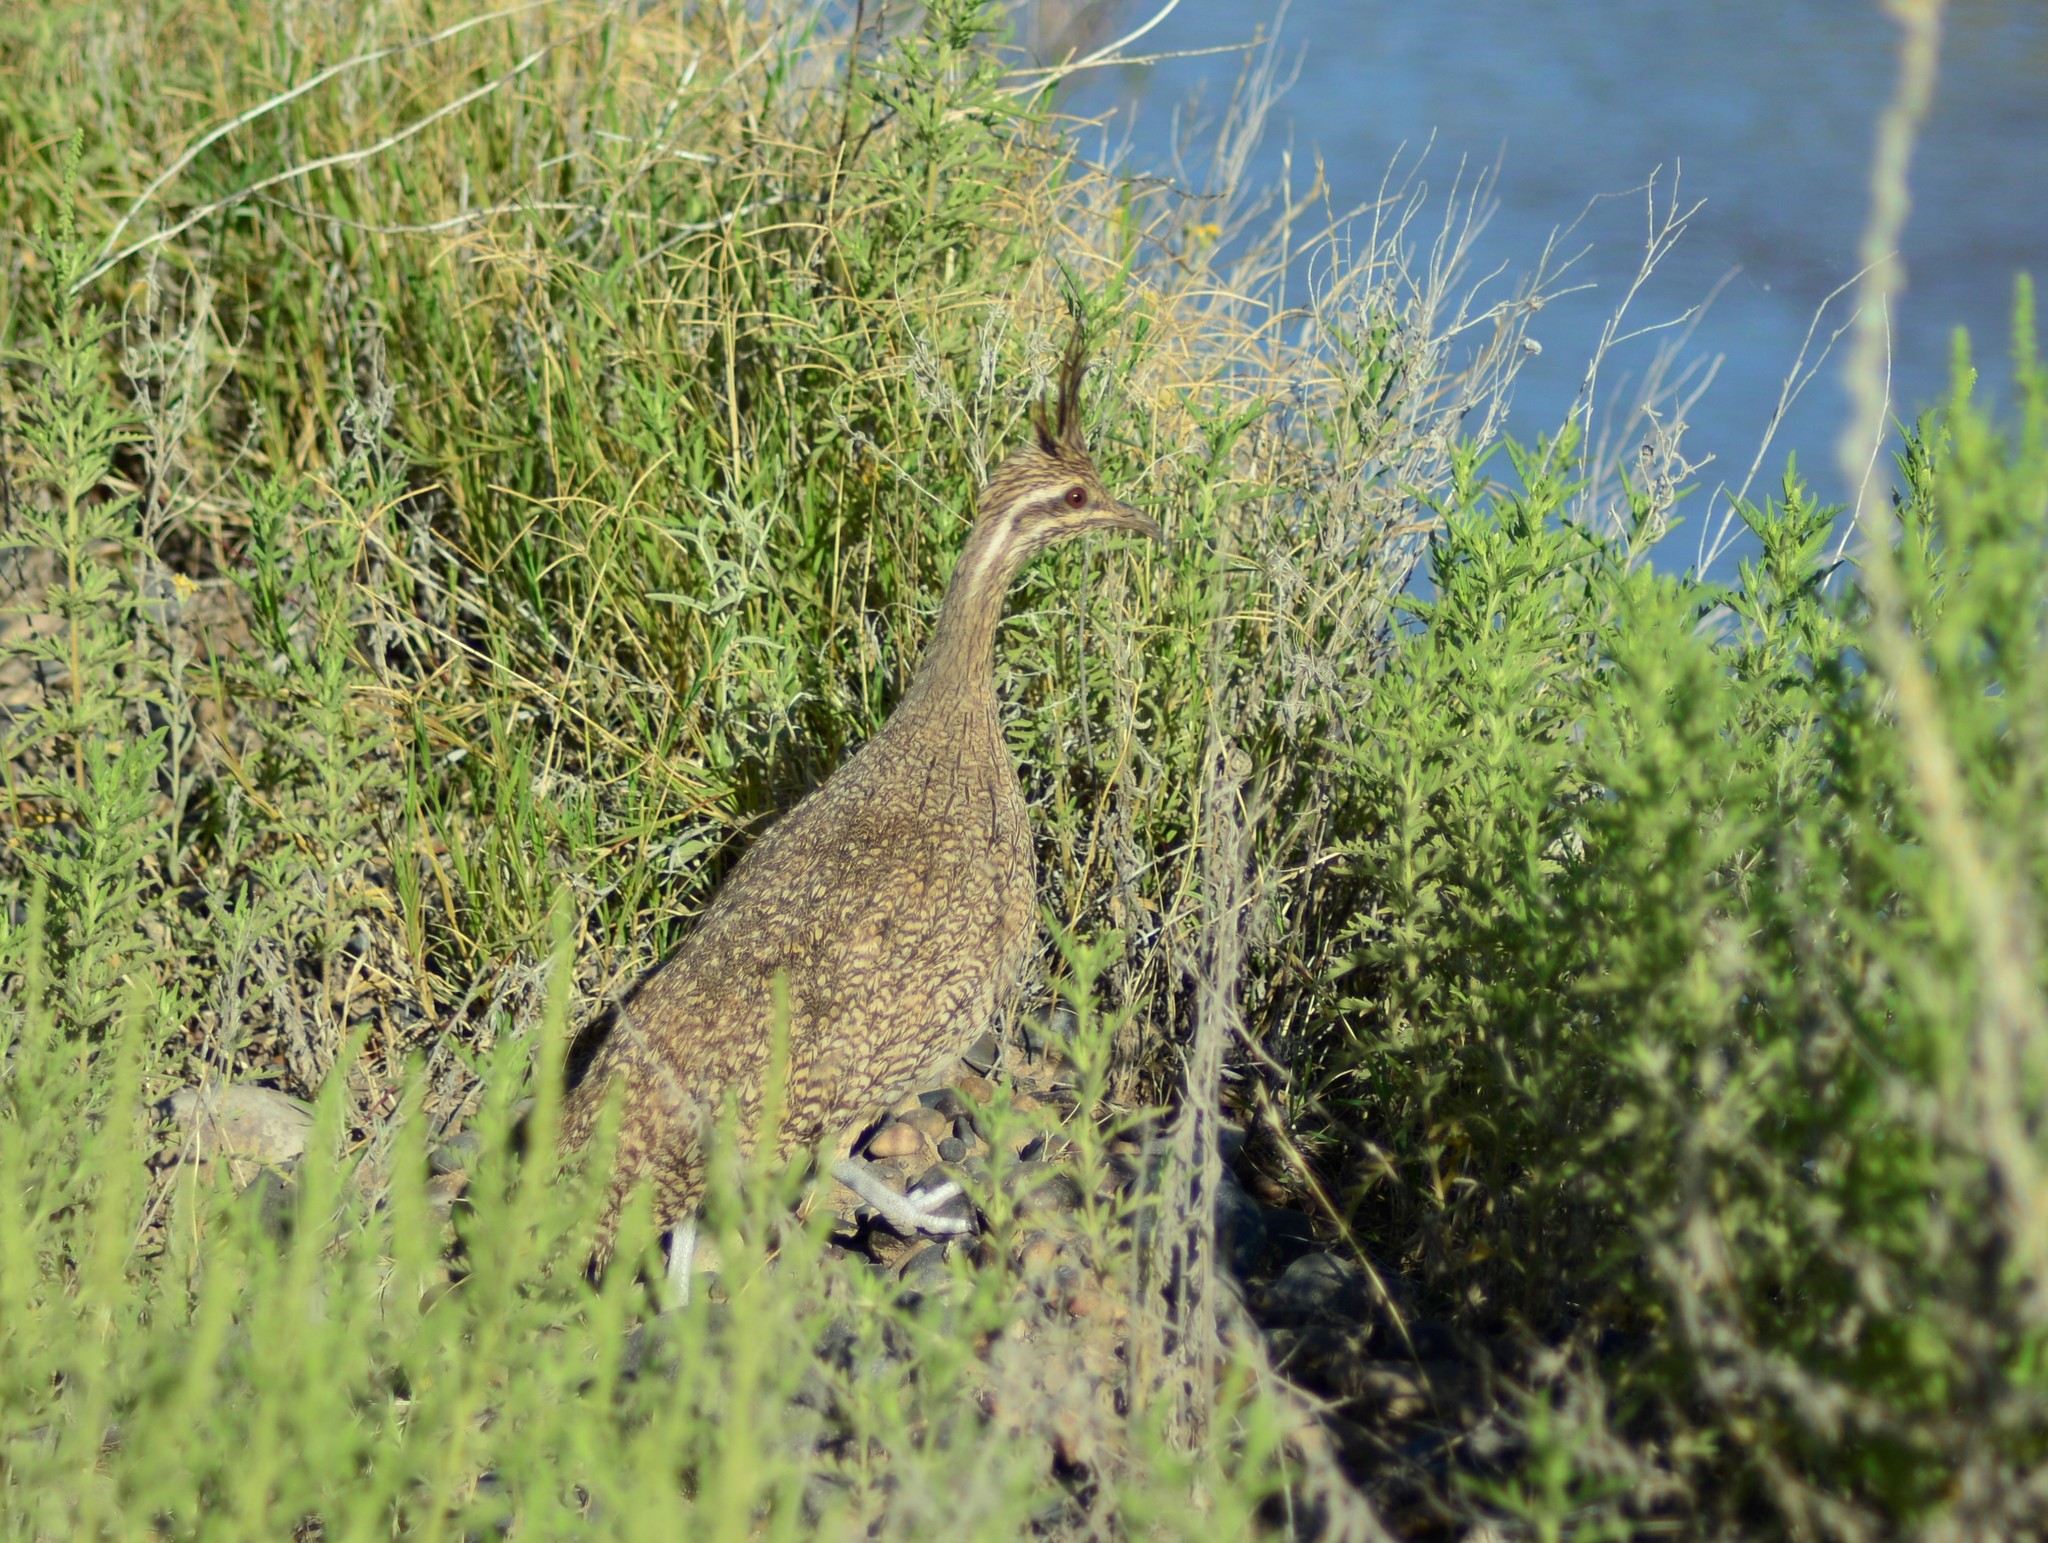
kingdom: Animalia
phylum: Chordata
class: Aves
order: Tinamiformes
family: Tinamidae
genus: Eudromia
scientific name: Eudromia elegans
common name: Elegant crested tinamou
